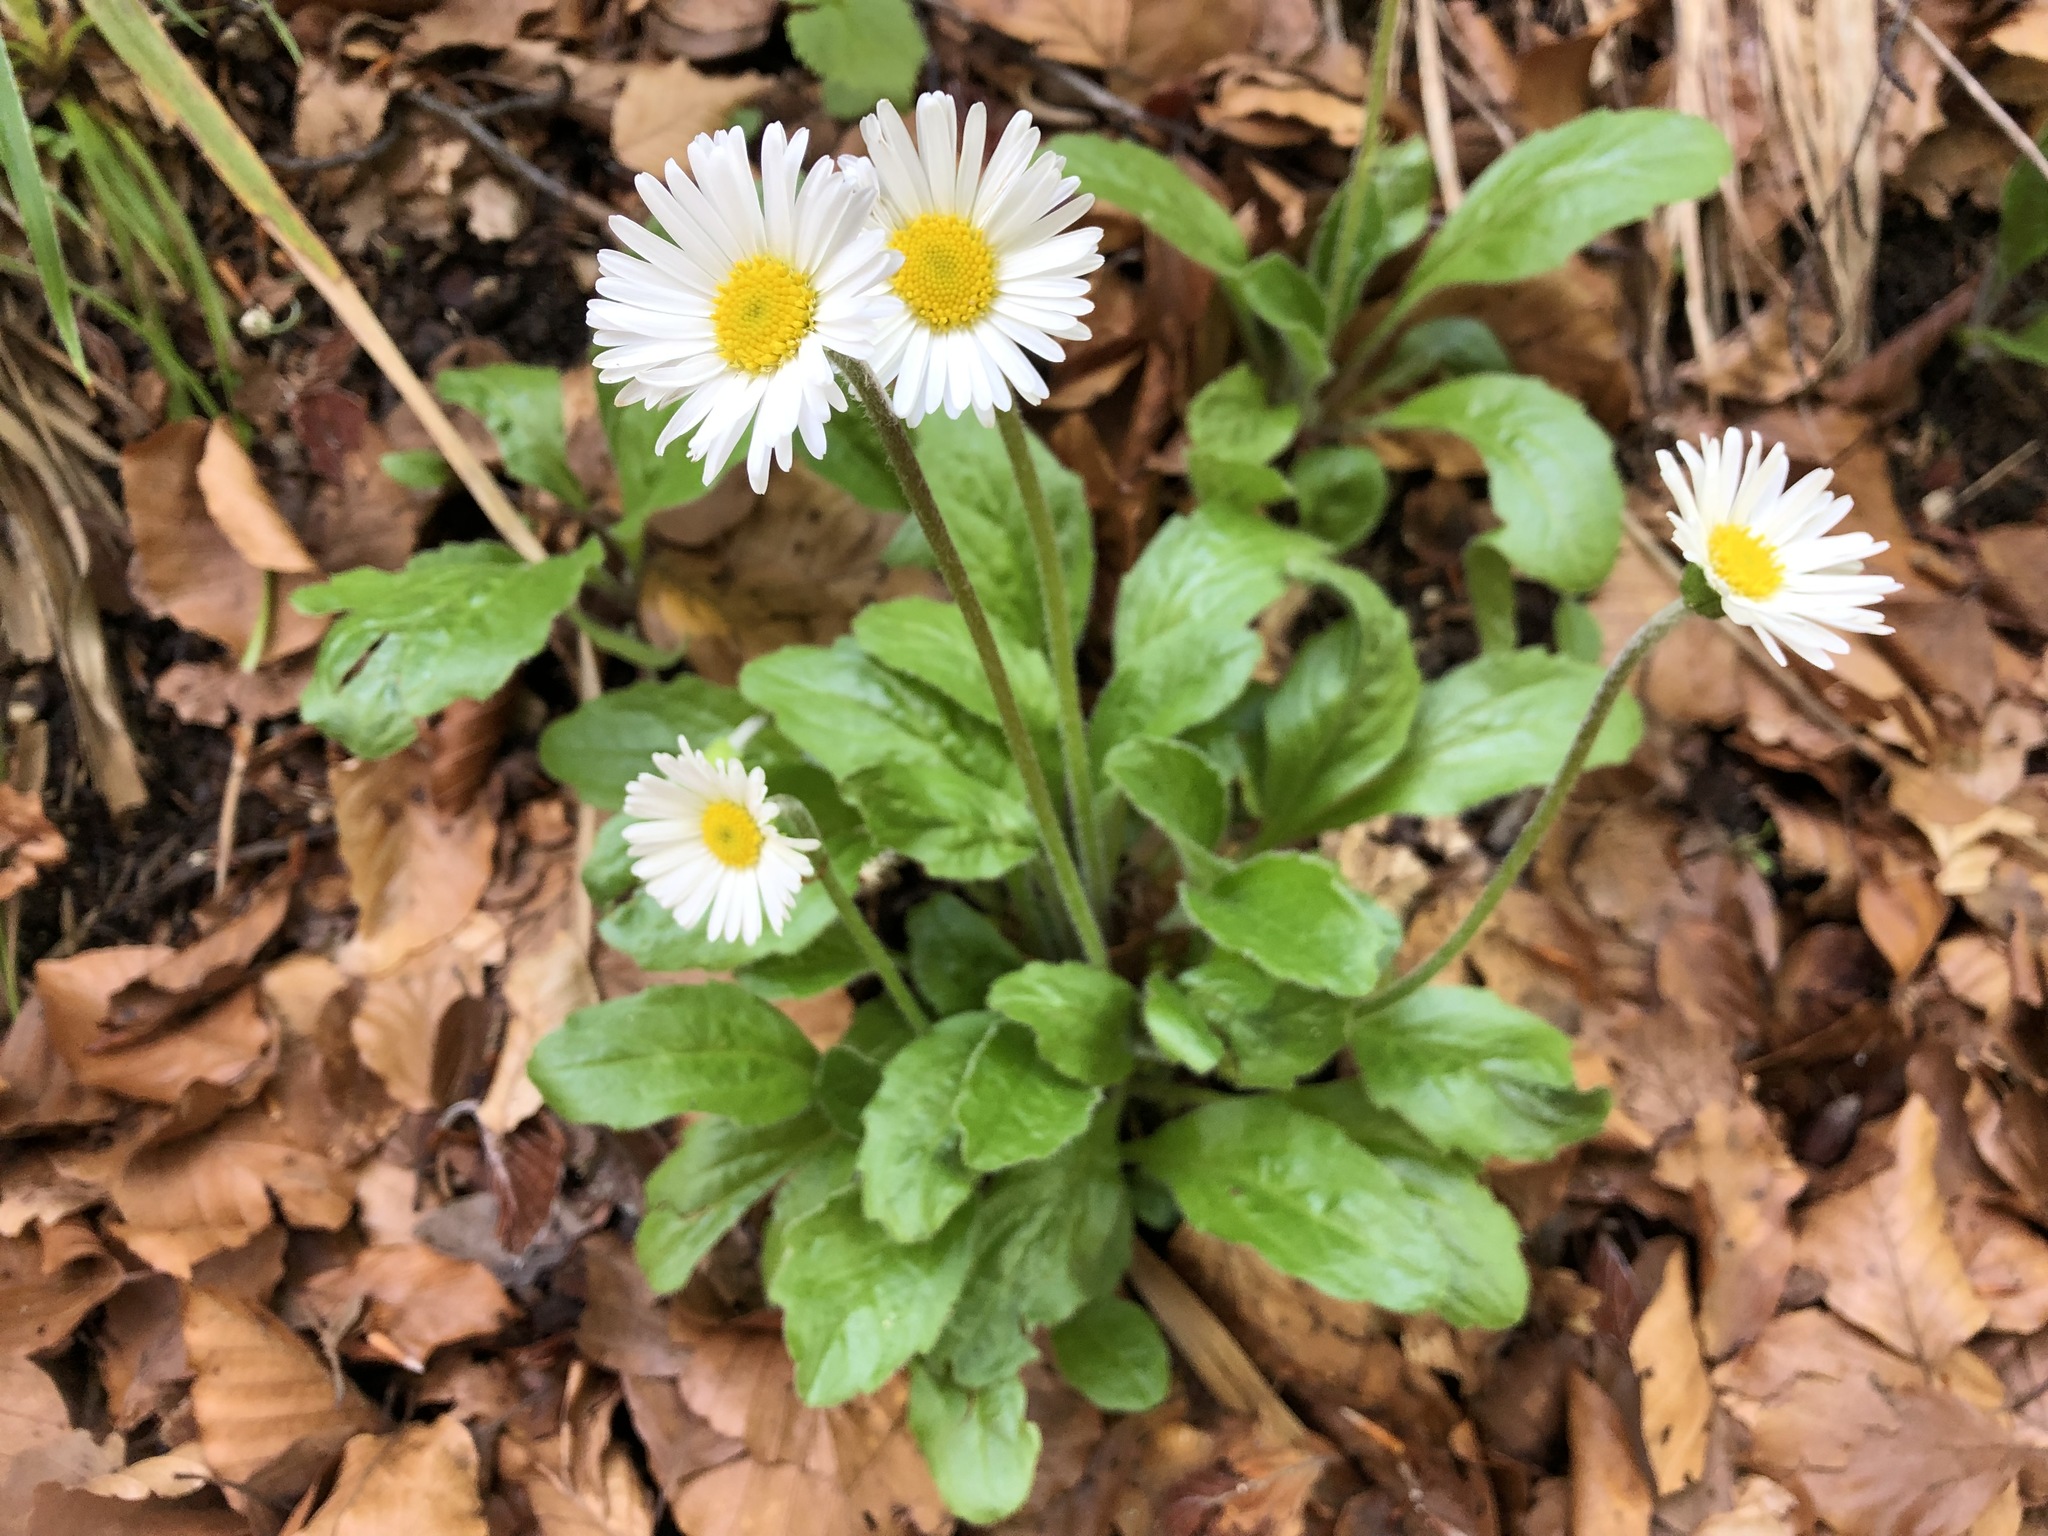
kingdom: Plantae
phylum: Tracheophyta
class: Magnoliopsida
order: Asterales
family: Asteraceae
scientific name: Asteraceae
